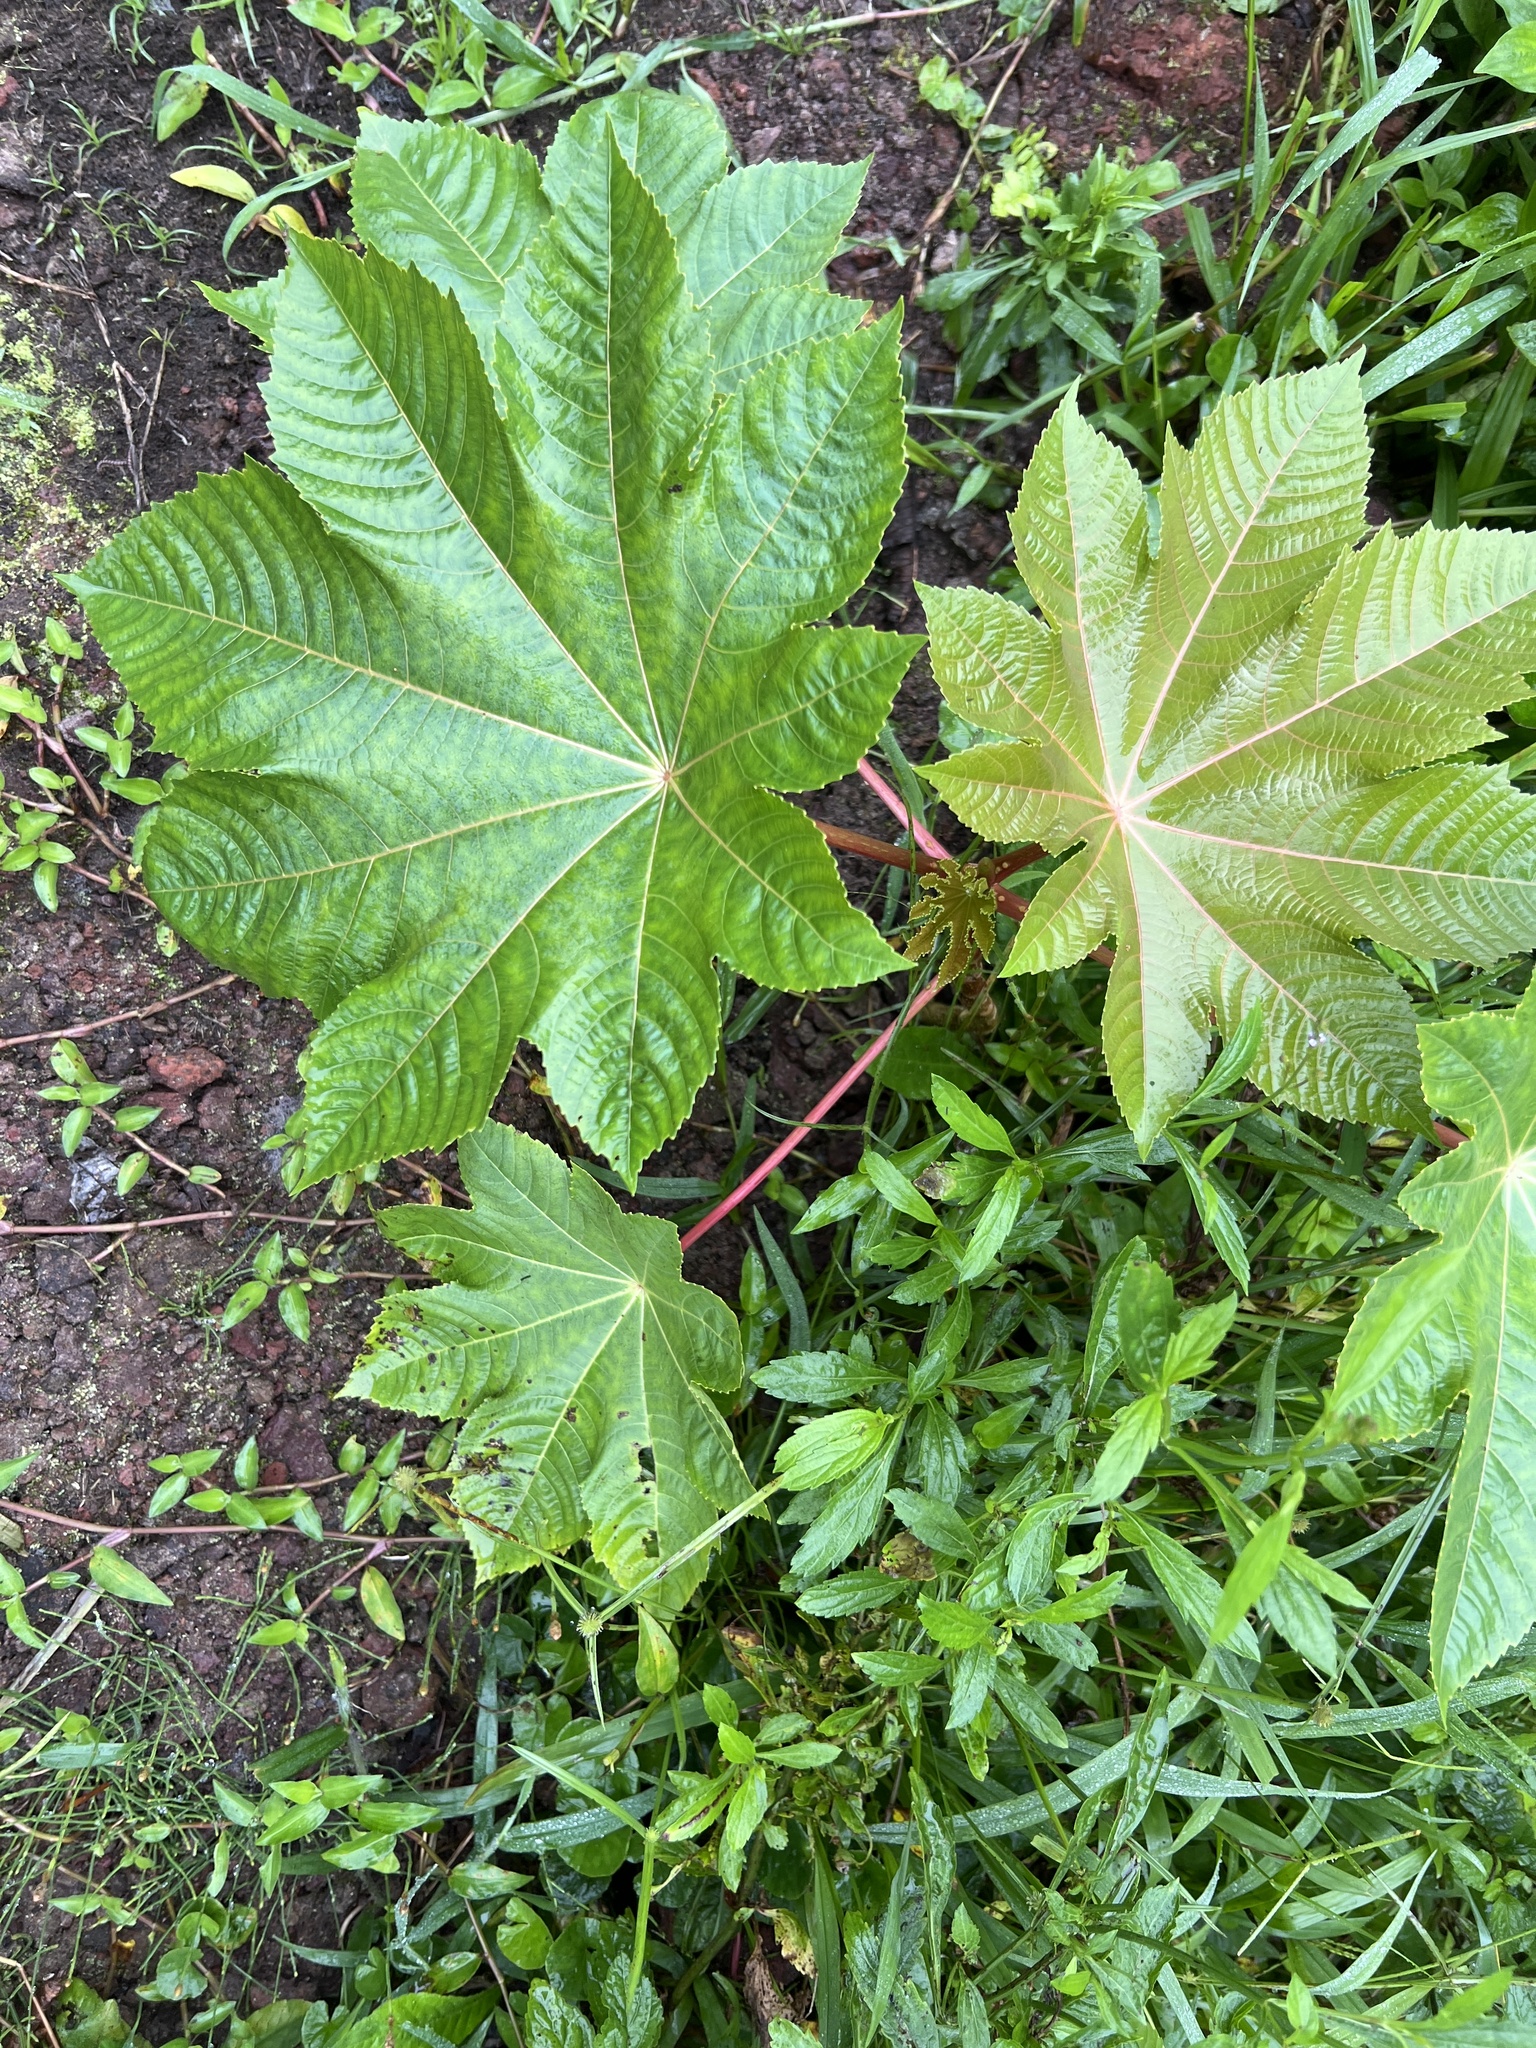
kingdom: Plantae
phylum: Tracheophyta
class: Magnoliopsida
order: Malpighiales
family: Euphorbiaceae
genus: Ricinus
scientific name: Ricinus communis
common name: Castor-oil-plant
